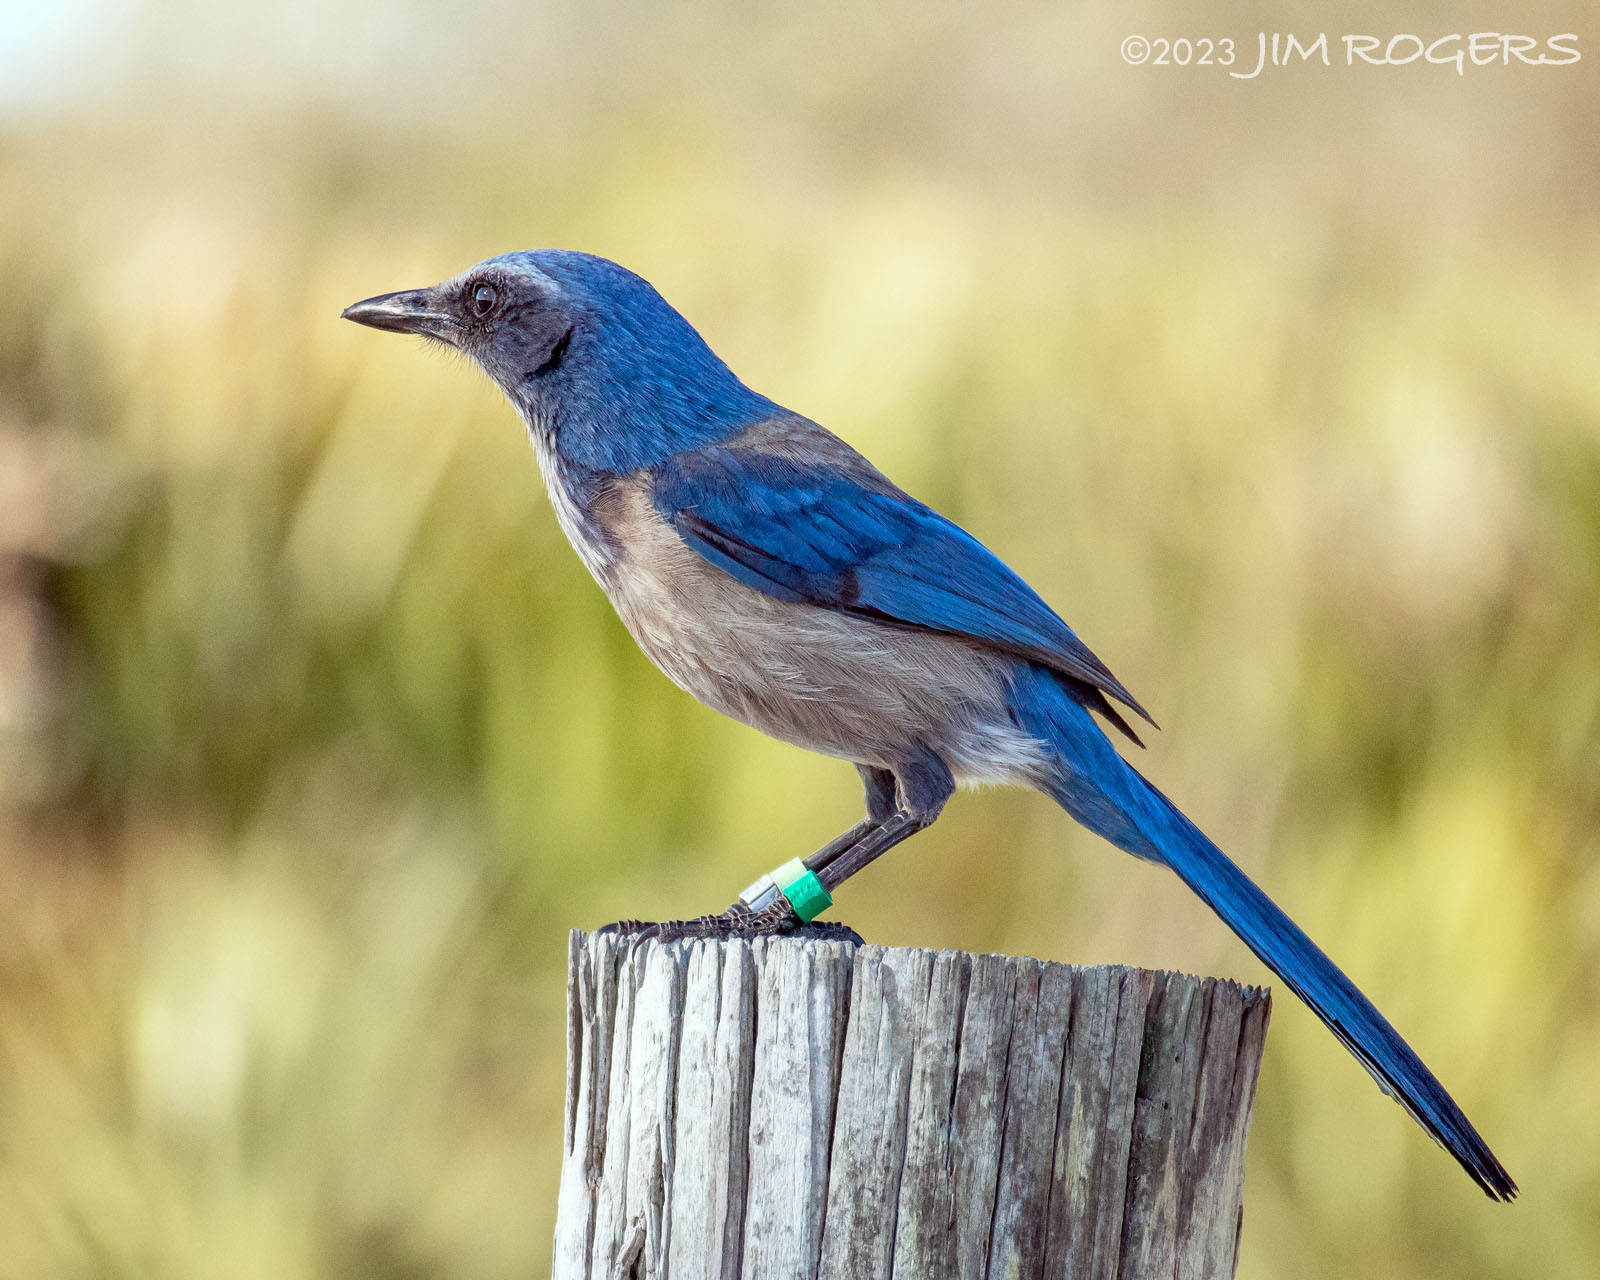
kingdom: Animalia
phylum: Chordata
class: Aves
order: Passeriformes
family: Corvidae
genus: Aphelocoma
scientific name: Aphelocoma coerulescens
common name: Florida scrub jay
